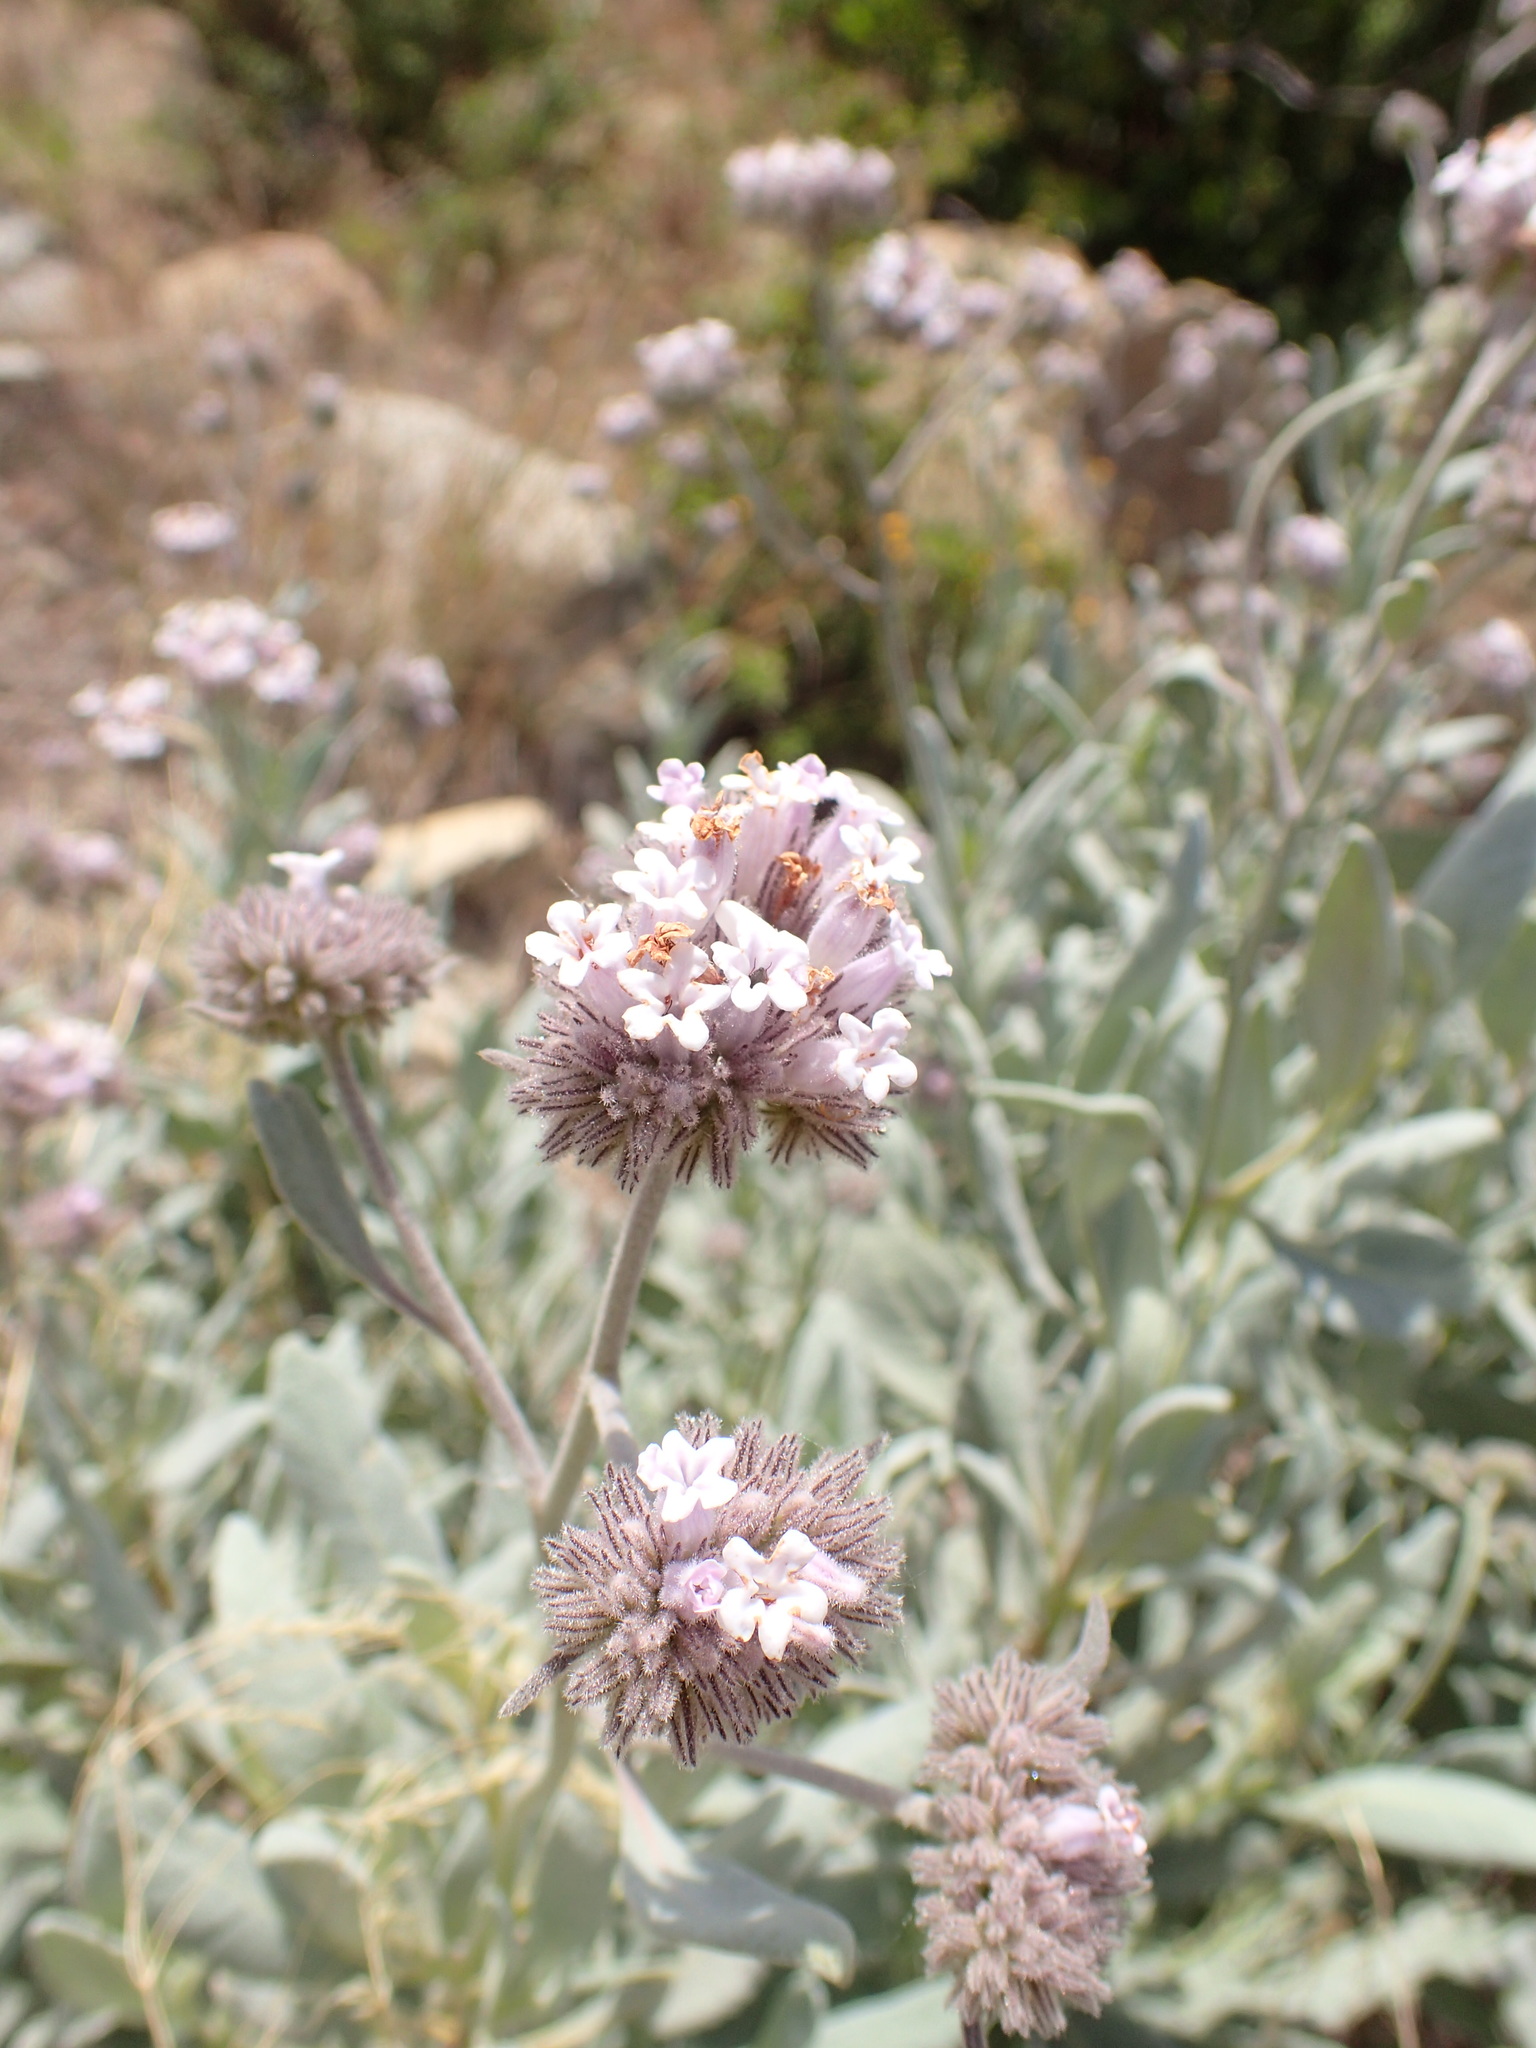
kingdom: Plantae
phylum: Tracheophyta
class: Magnoliopsida
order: Boraginales
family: Namaceae
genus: Eriodictyon
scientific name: Eriodictyon traskiae
